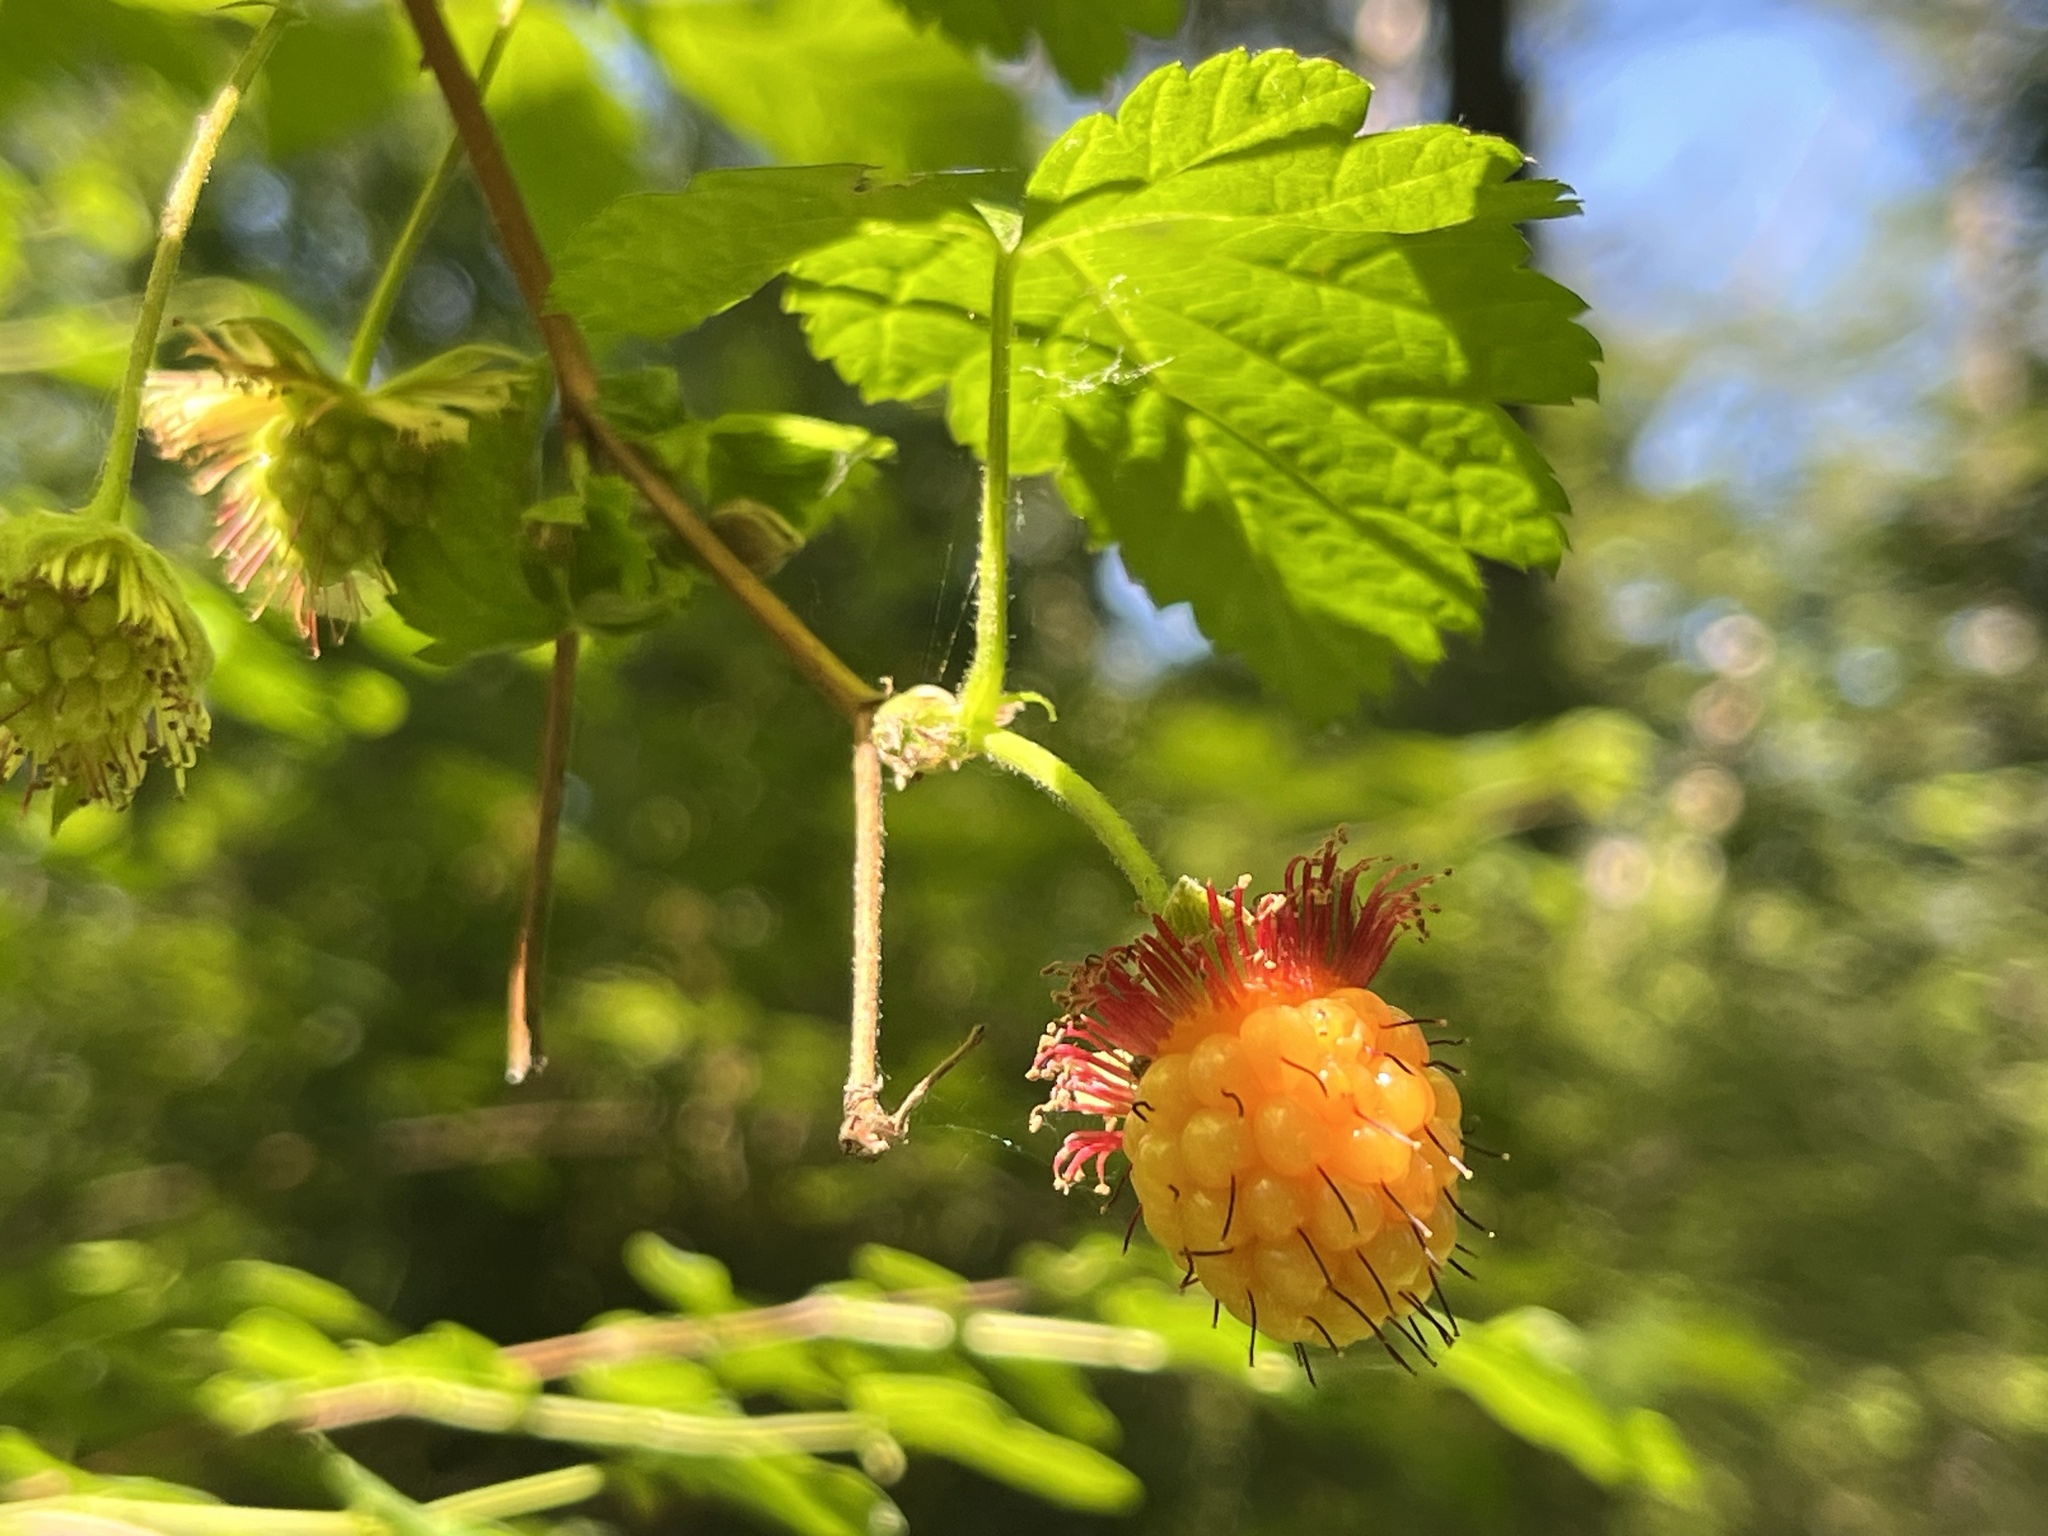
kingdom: Plantae
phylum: Tracheophyta
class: Magnoliopsida
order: Rosales
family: Rosaceae
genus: Rubus
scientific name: Rubus spectabilis
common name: Salmonberry
